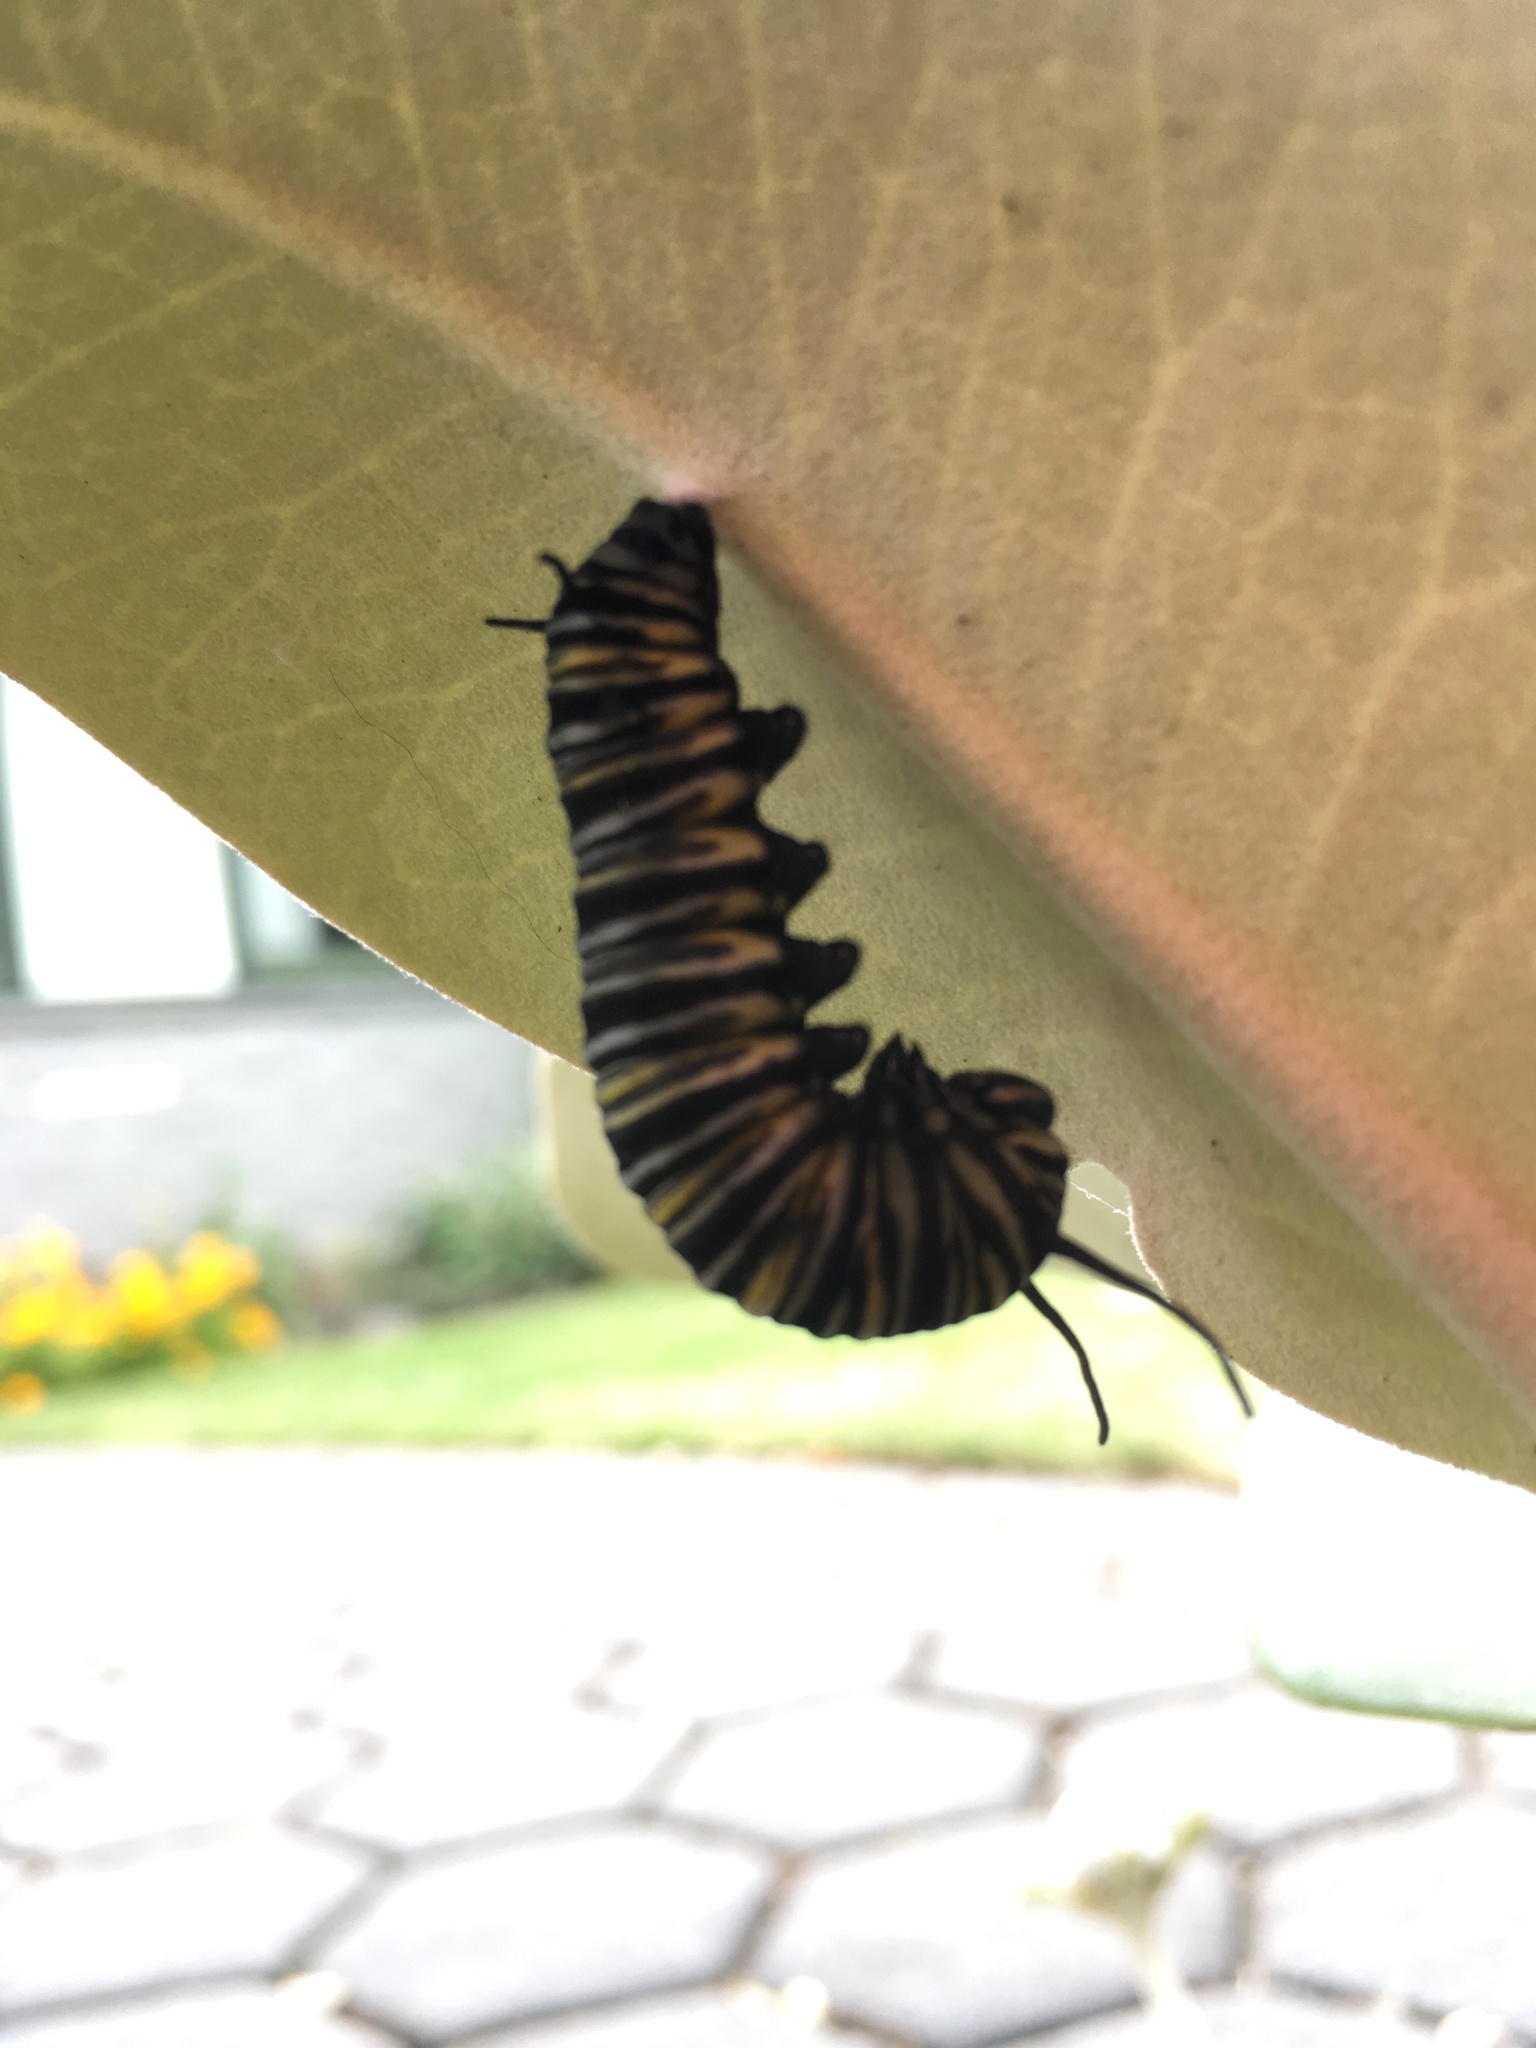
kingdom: Animalia
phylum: Arthropoda
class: Insecta
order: Lepidoptera
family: Nymphalidae
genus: Danaus
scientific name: Danaus plexippus
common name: Monarch
